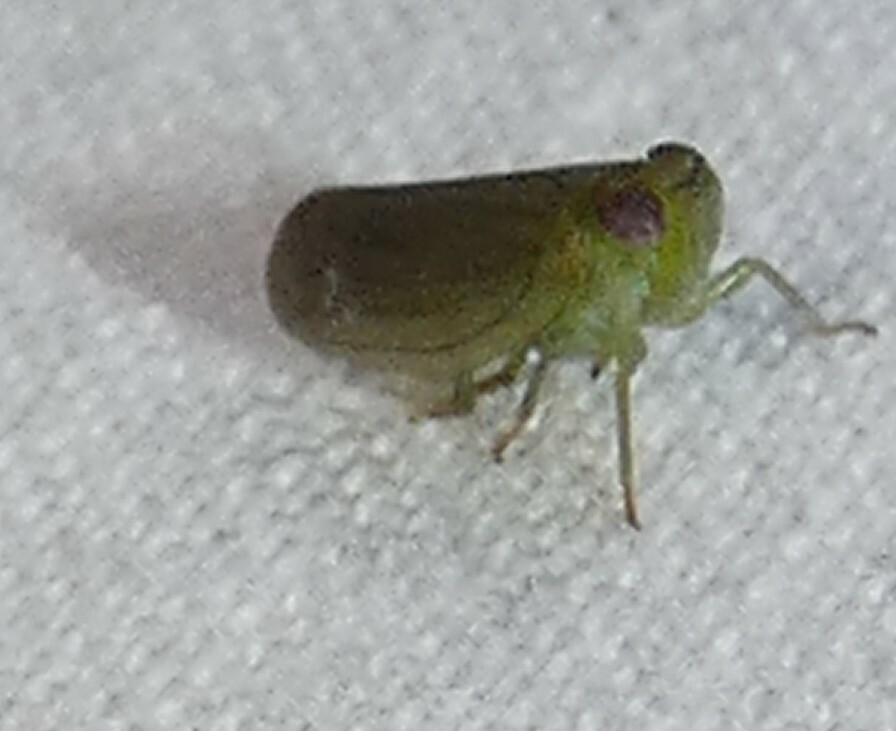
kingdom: Animalia
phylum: Arthropoda
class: Insecta
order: Hemiptera
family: Issidae
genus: Aplos
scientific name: Aplos simplex
